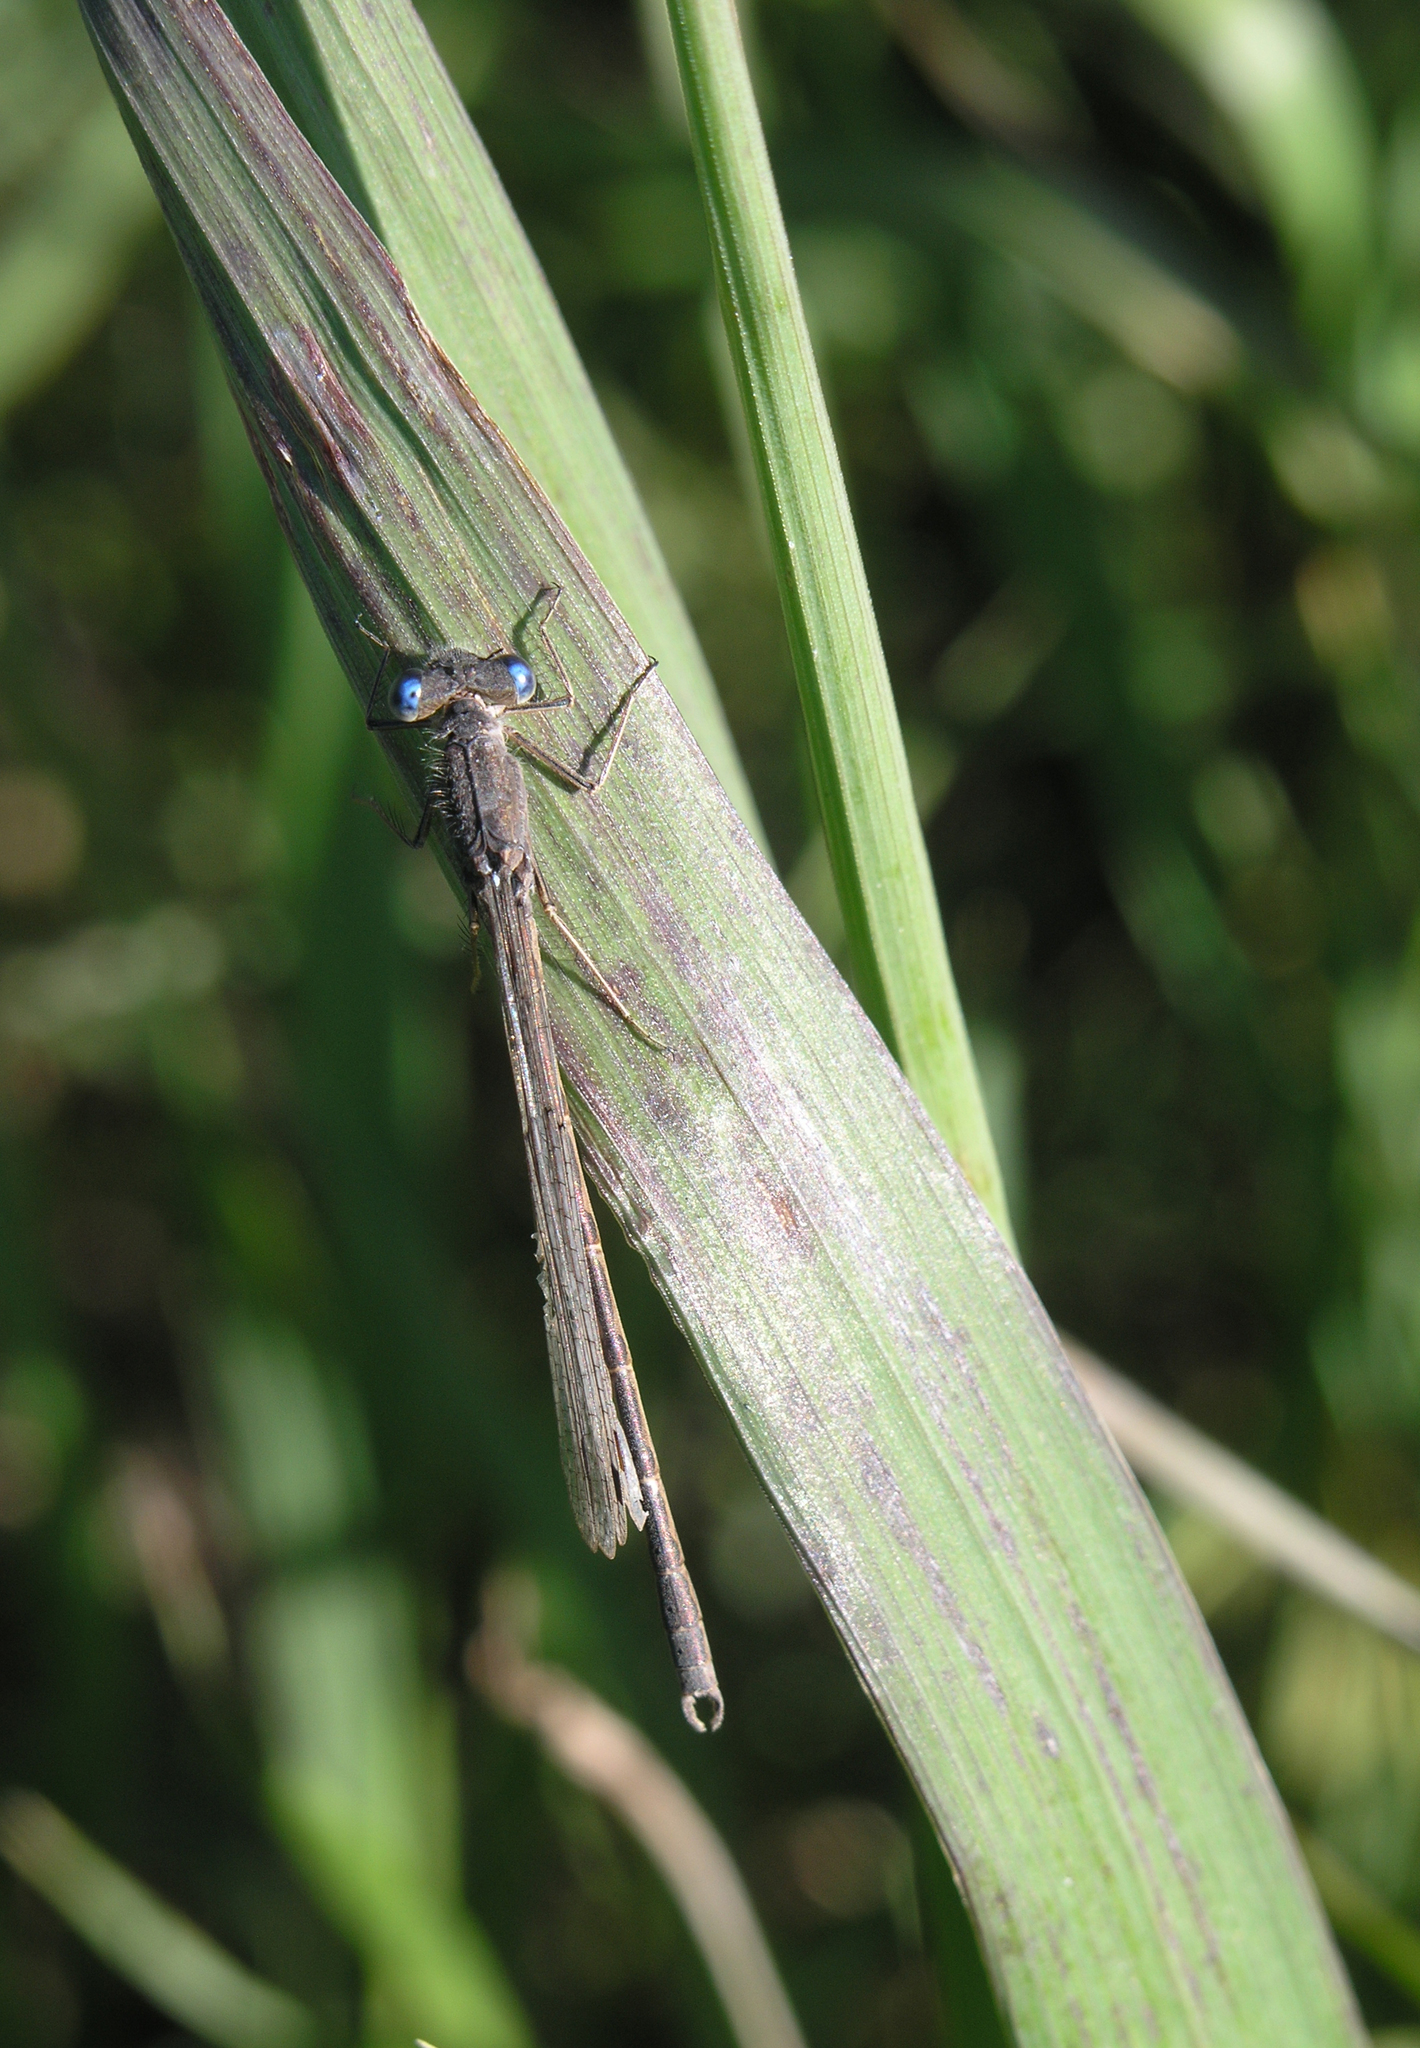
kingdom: Animalia
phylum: Arthropoda
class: Insecta
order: Odonata
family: Lestidae
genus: Sympecma
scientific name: Sympecma paedisca
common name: Siberian winter damsel
